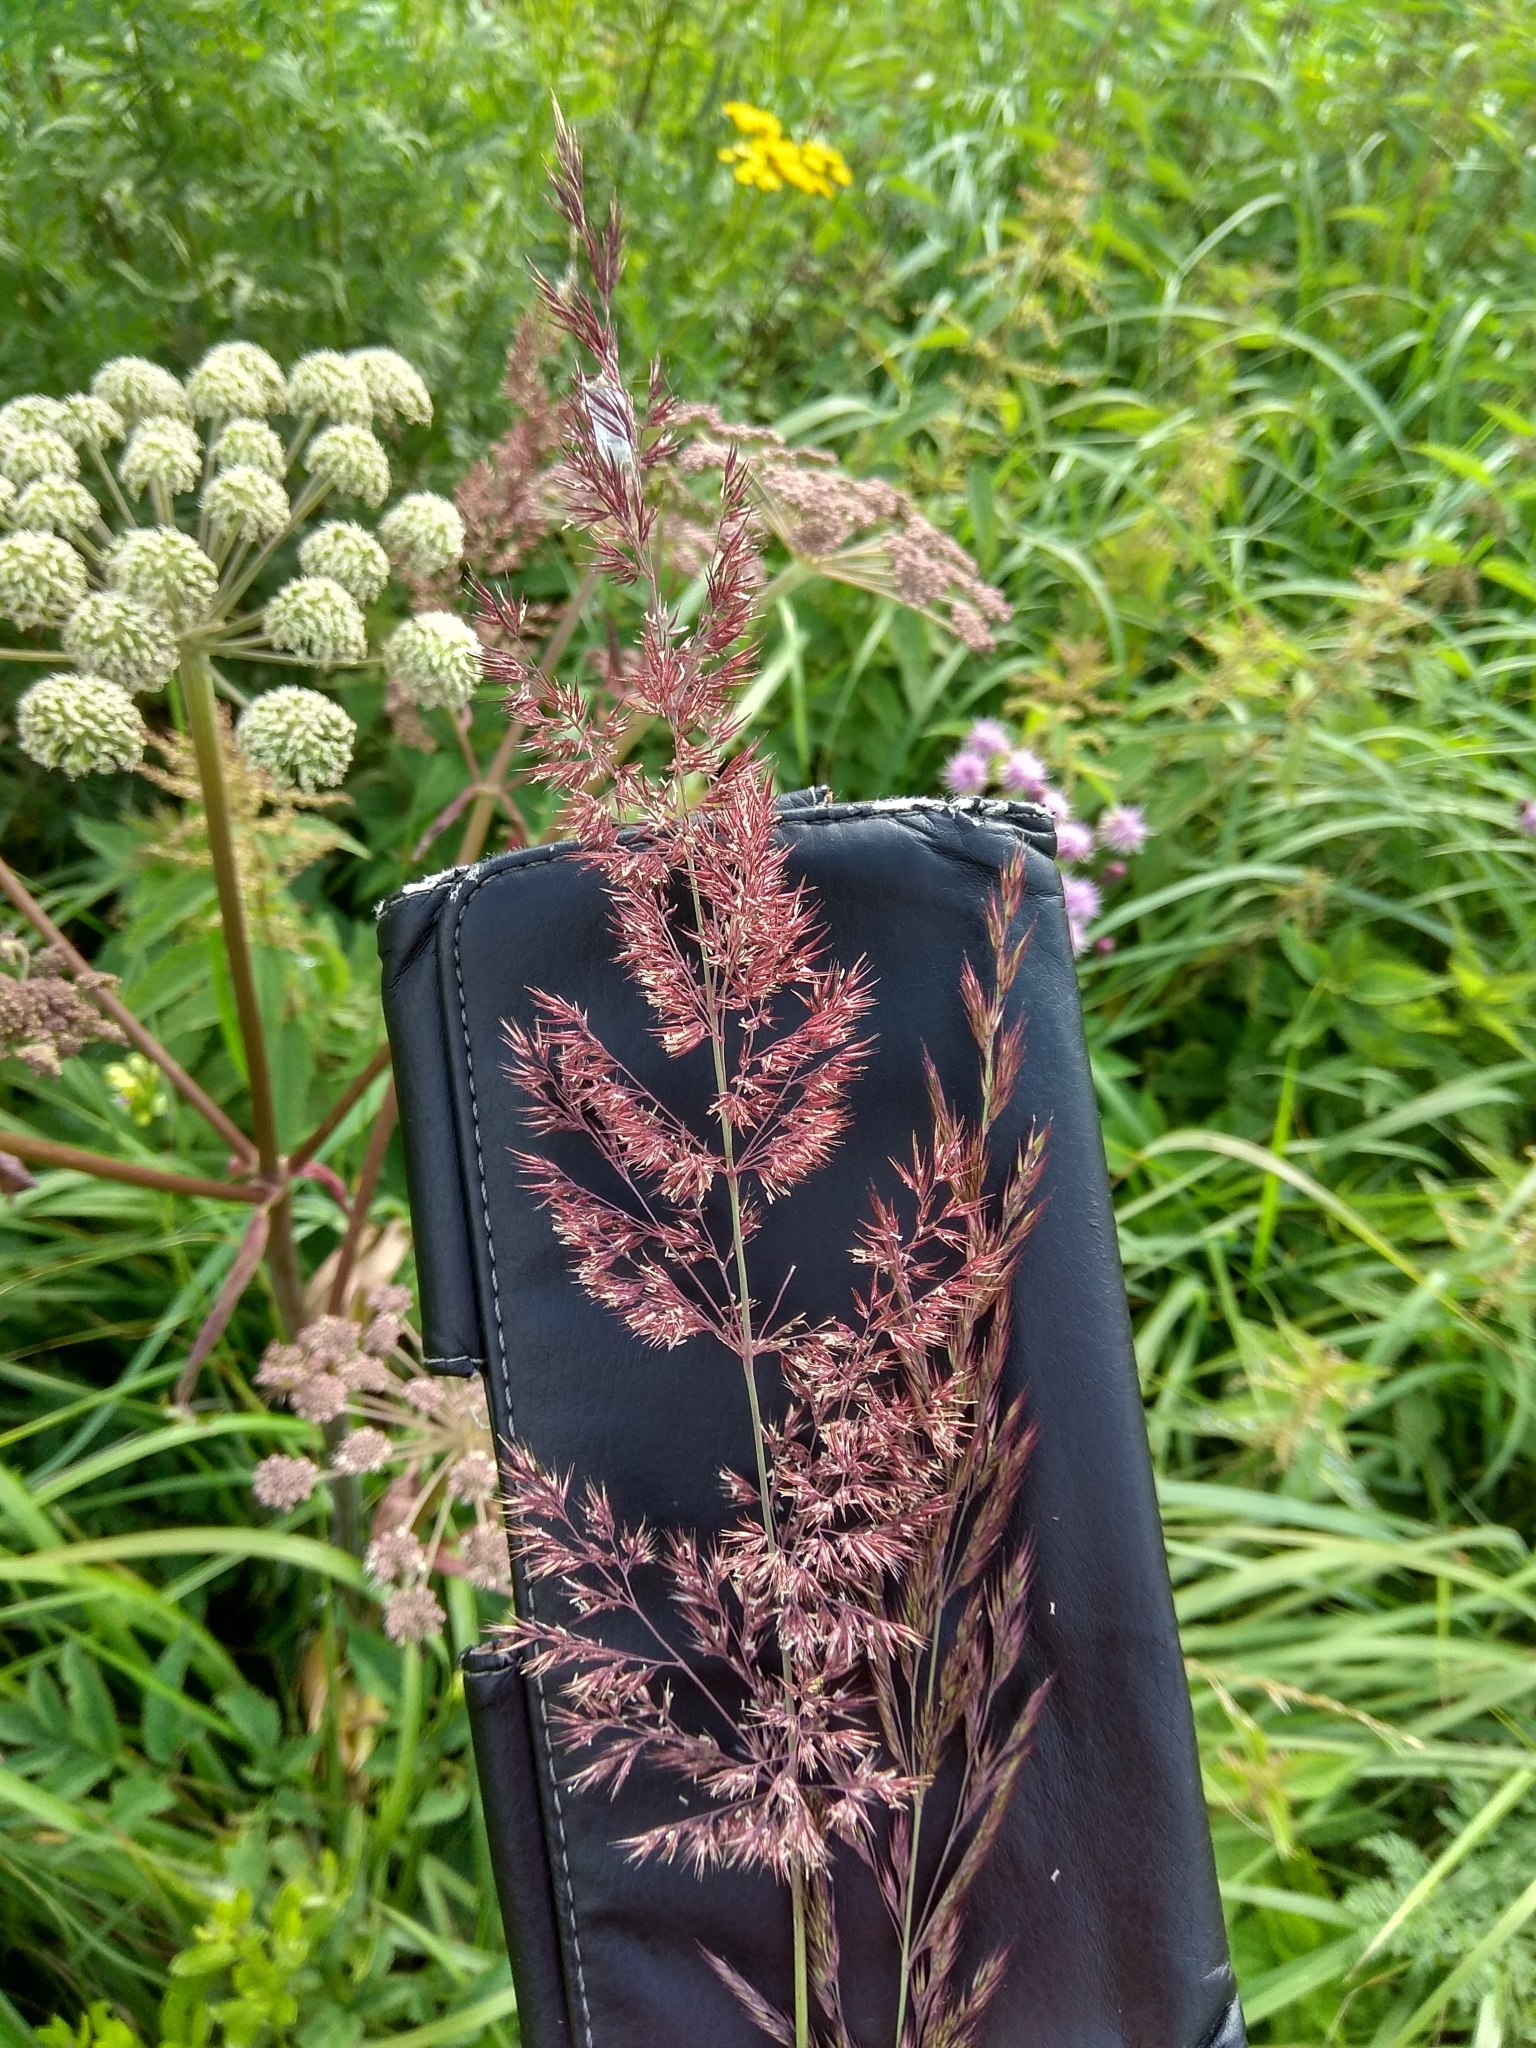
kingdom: Plantae
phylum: Tracheophyta
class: Liliopsida
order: Poales
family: Poaceae
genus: Calamagrostis
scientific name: Calamagrostis epigejos
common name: Wood small-reed
